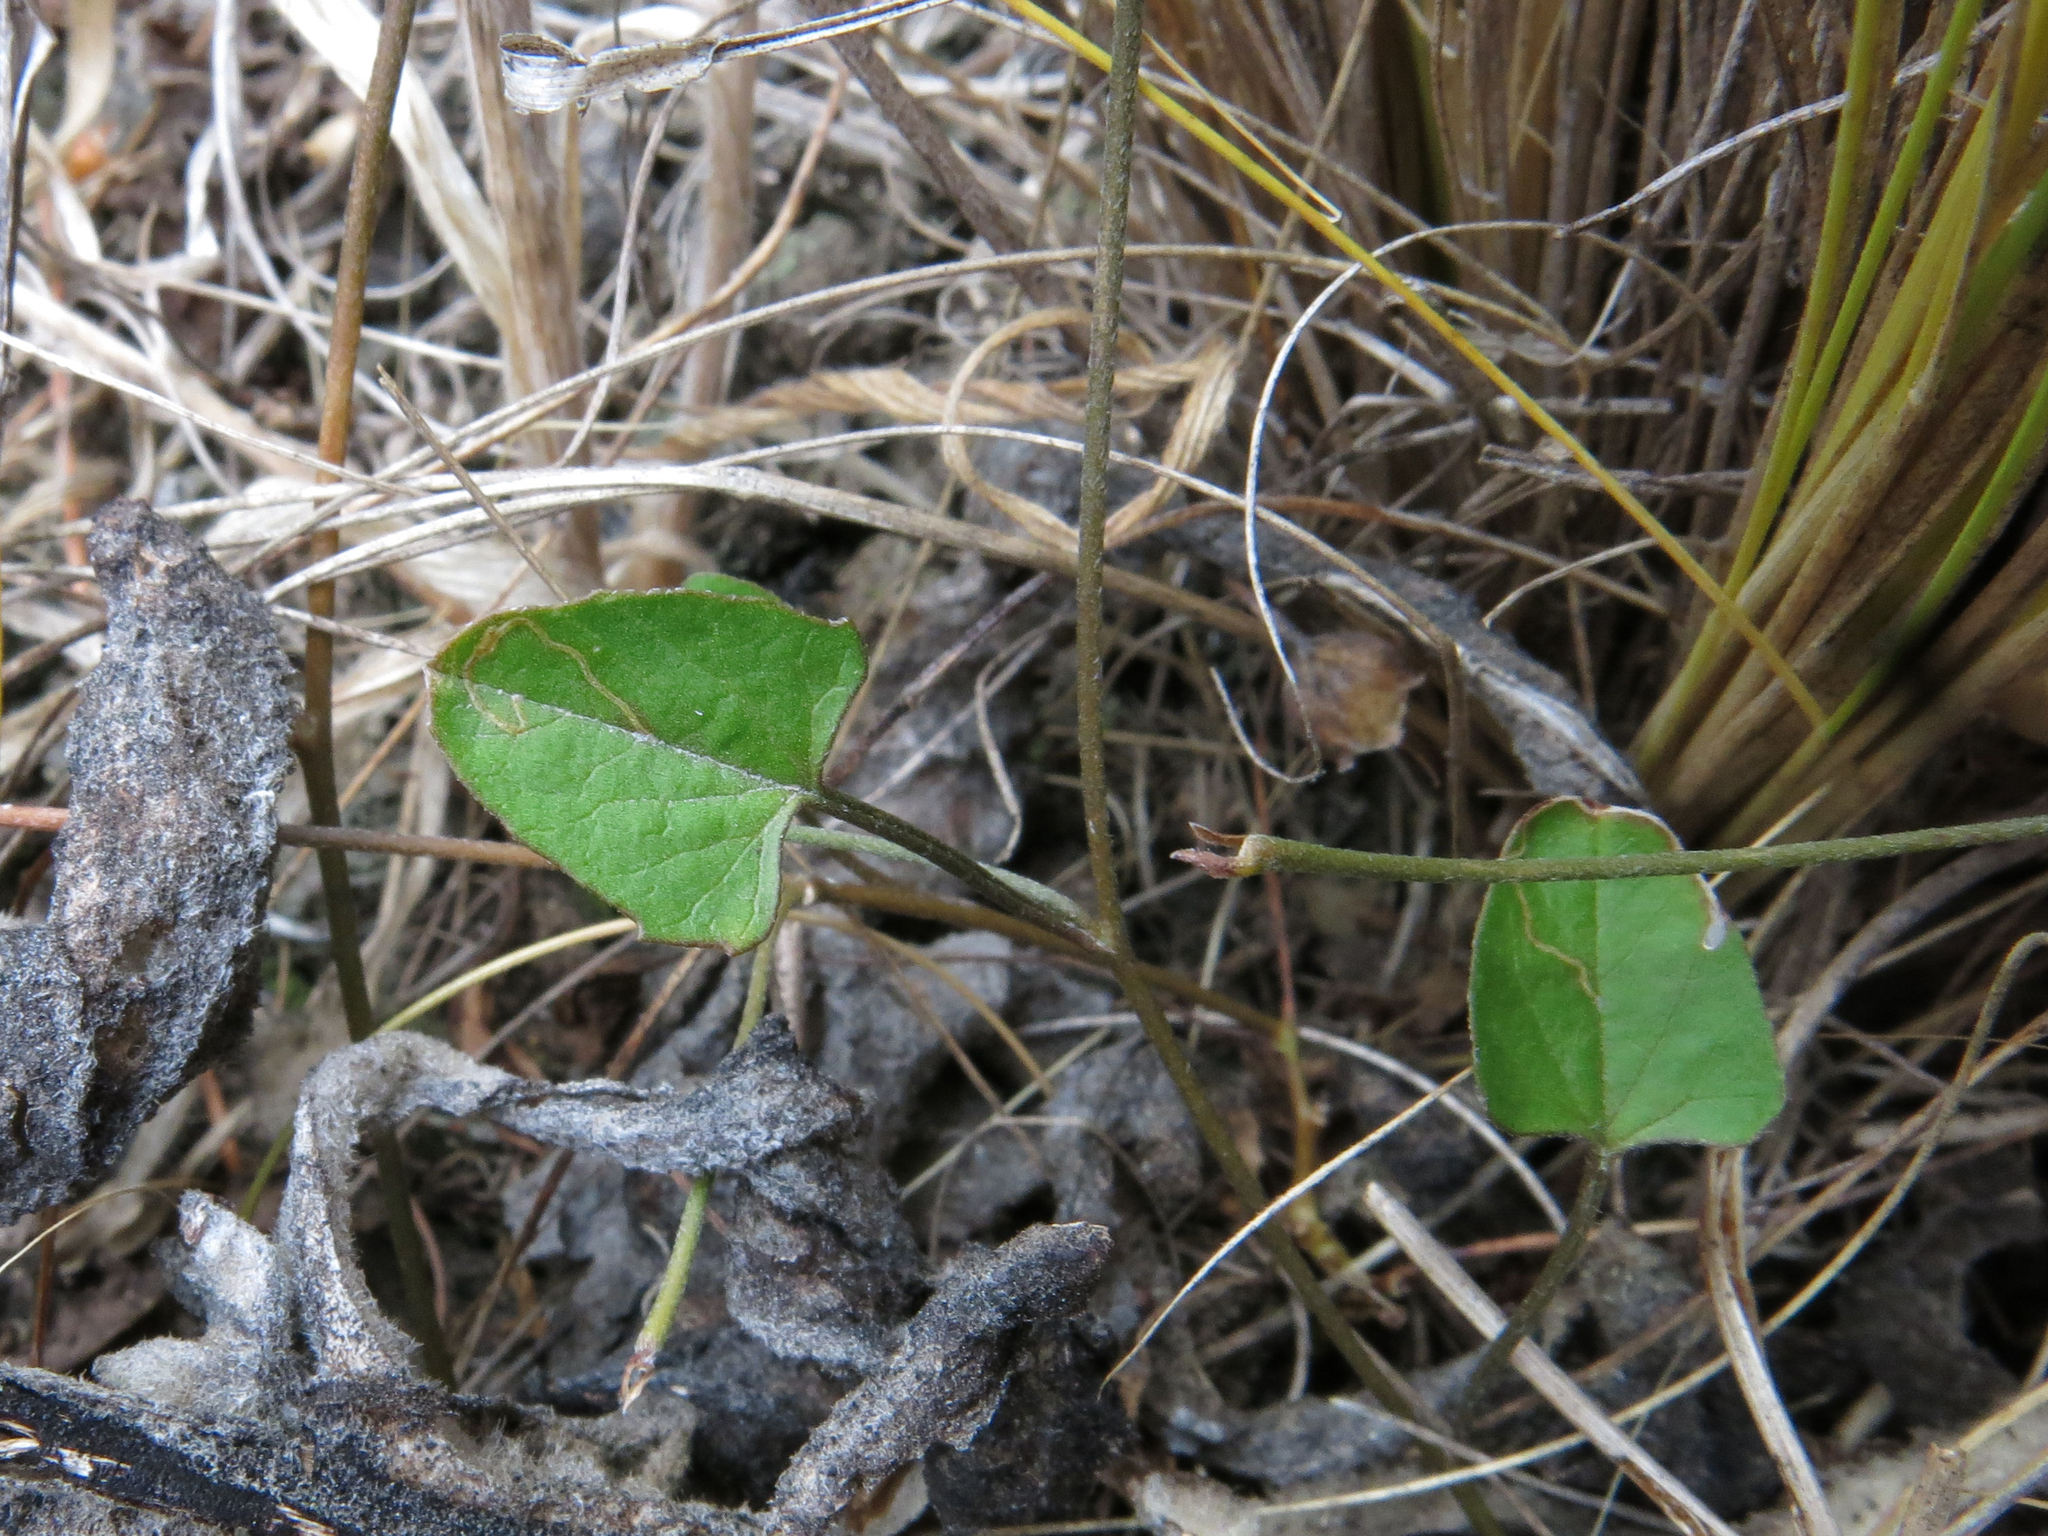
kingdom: Plantae
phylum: Tracheophyta
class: Magnoliopsida
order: Solanales
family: Convolvulaceae
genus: Convolvulus
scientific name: Convolvulus waitaha
